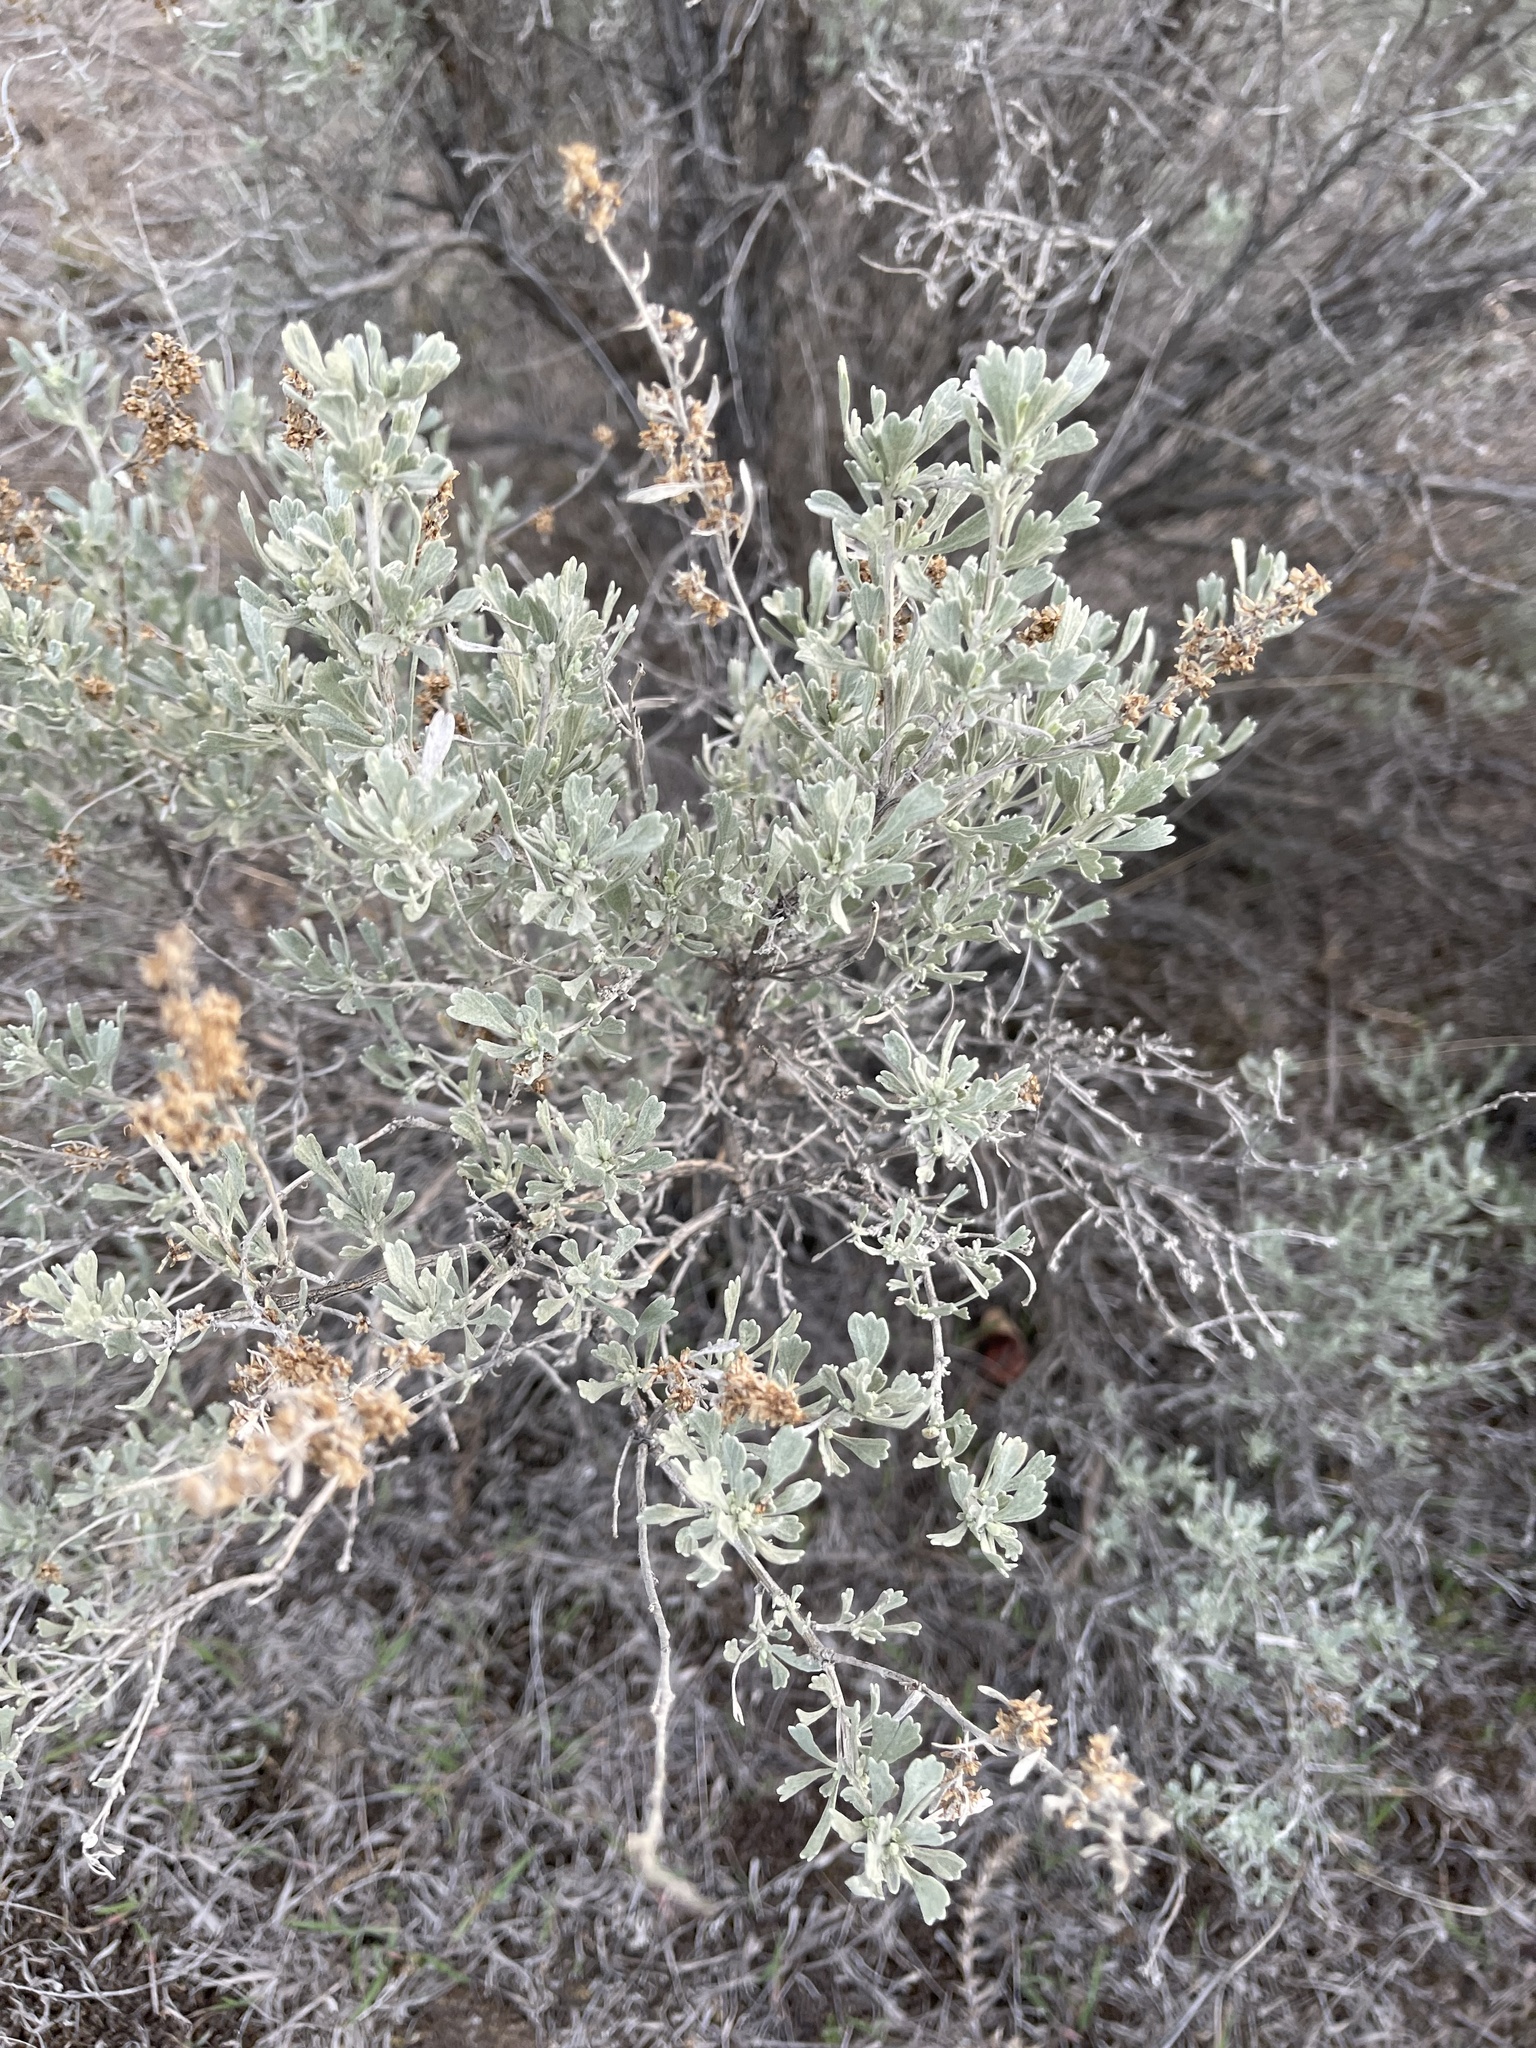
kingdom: Plantae
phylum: Tracheophyta
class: Magnoliopsida
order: Asterales
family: Asteraceae
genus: Artemisia
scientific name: Artemisia tridentata
